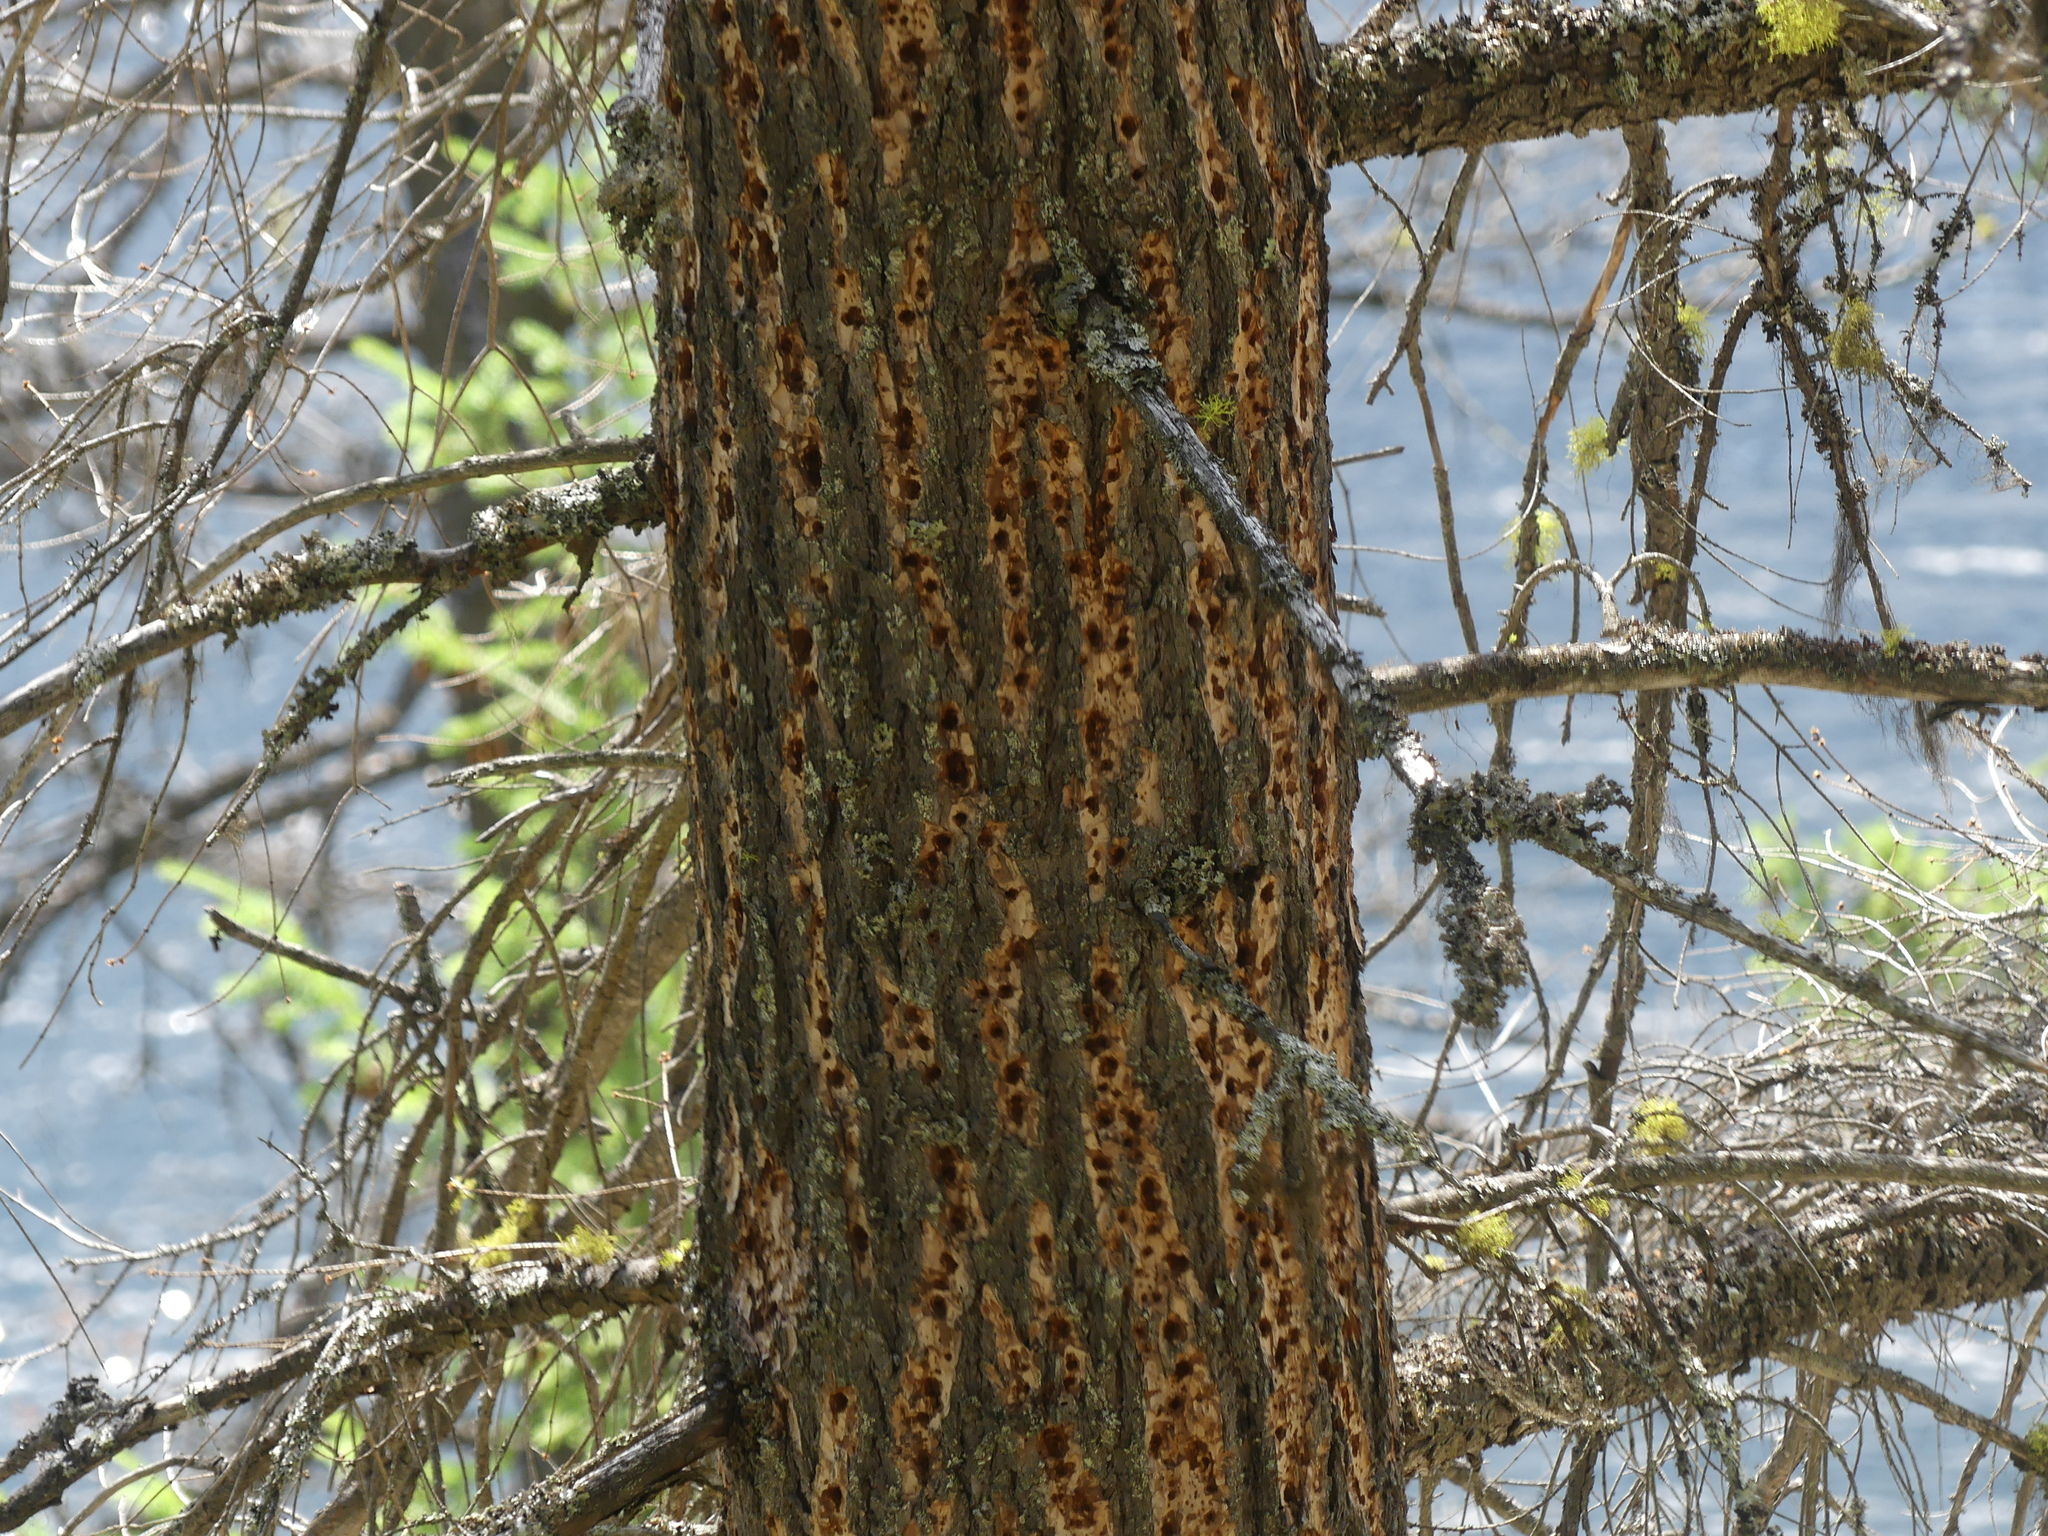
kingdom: Plantae
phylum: Tracheophyta
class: Pinopsida
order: Pinales
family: Pinaceae
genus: Pinus
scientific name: Pinus ponderosa
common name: Western yellow-pine
